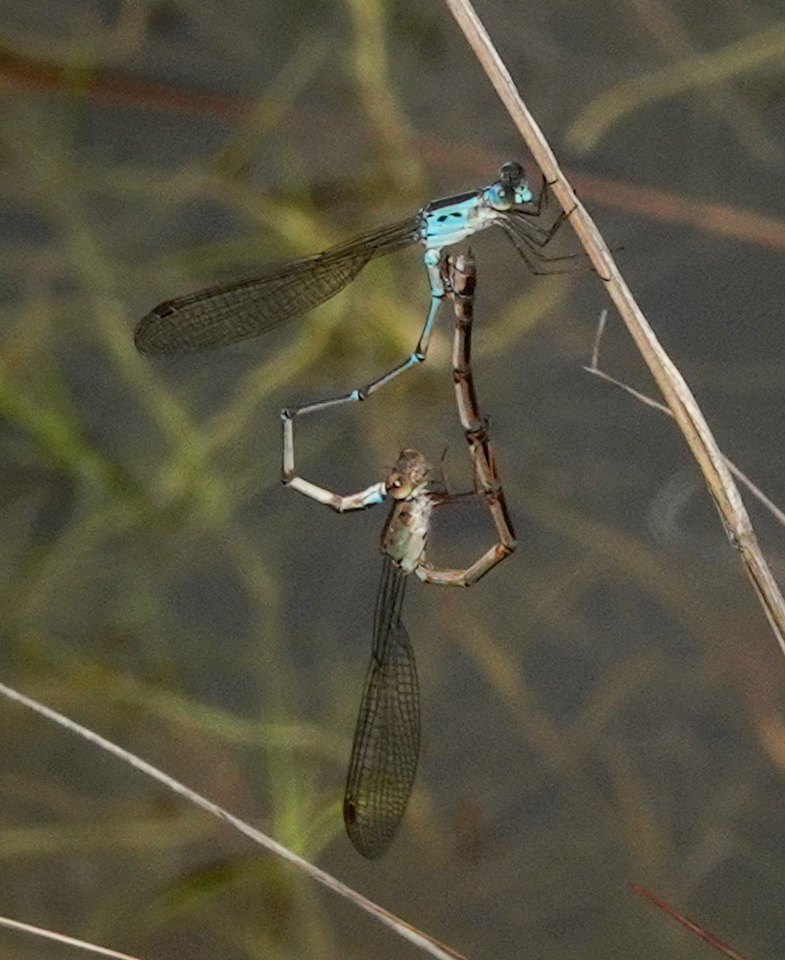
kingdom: Animalia
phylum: Arthropoda
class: Insecta
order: Odonata
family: Lestidae
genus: Indolestes
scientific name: Indolestes gracilis
